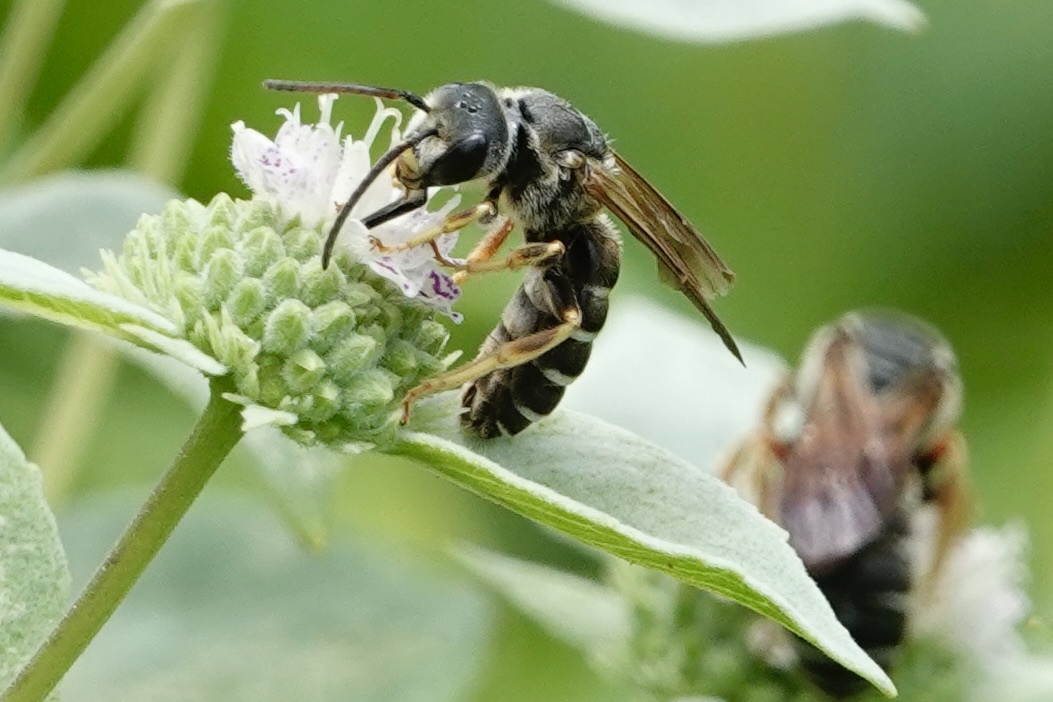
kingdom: Animalia
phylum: Arthropoda
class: Insecta
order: Hymenoptera
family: Halictidae
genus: Halictus
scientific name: Halictus parallelus
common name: Parallel-striped sweat bee
